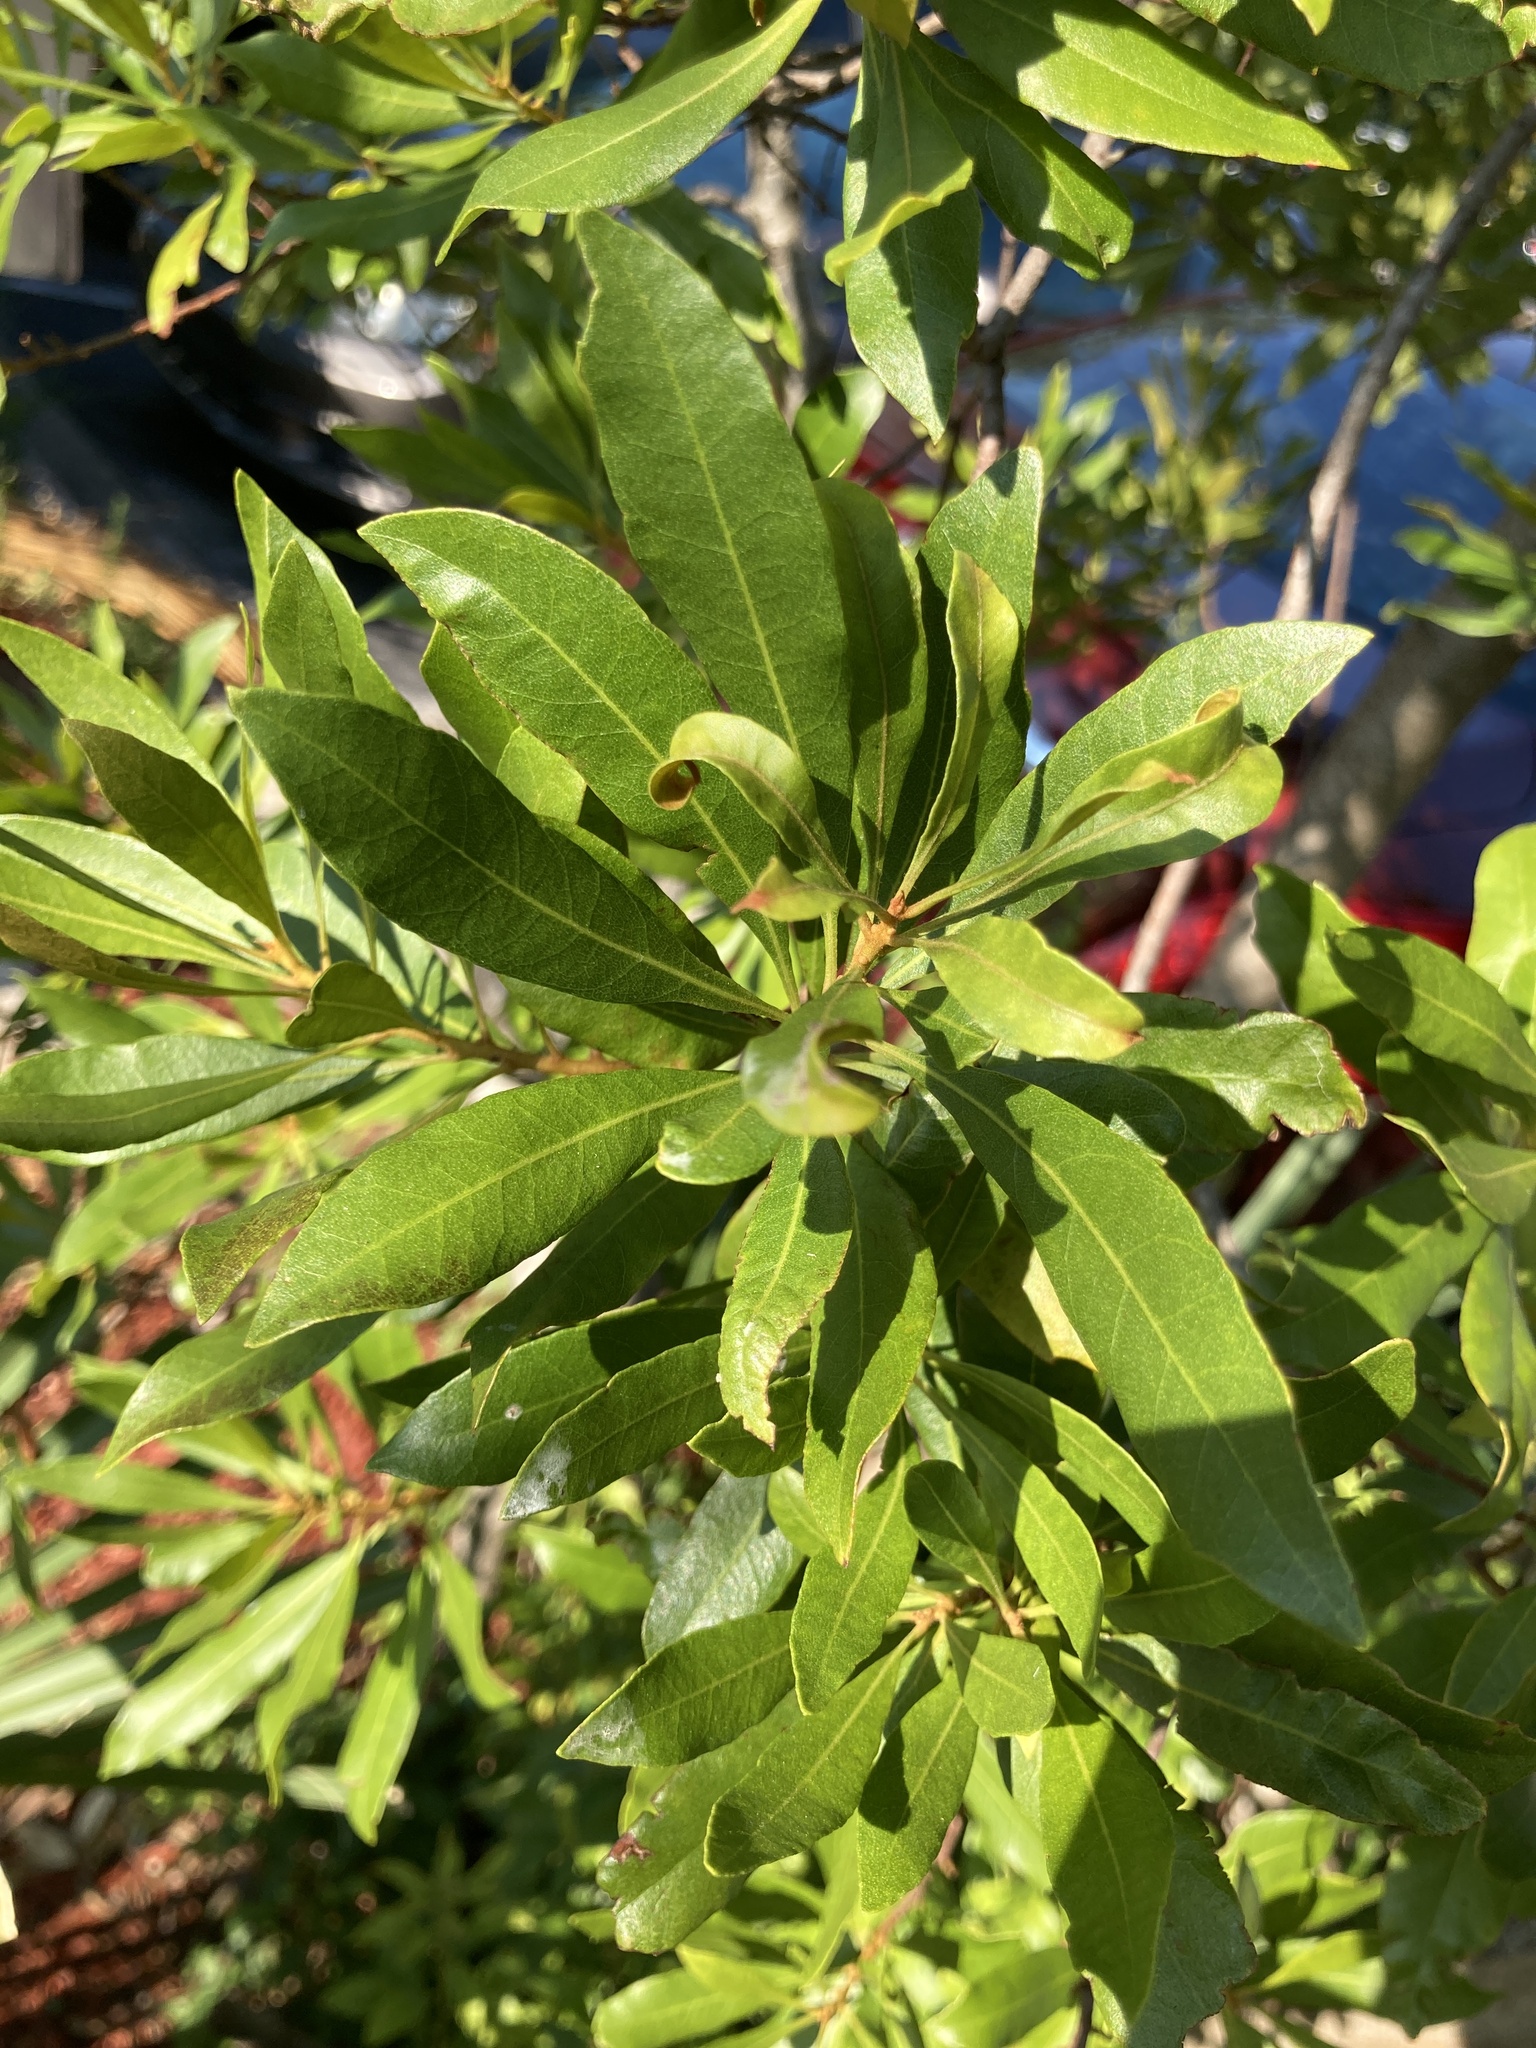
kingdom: Plantae
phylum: Tracheophyta
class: Magnoliopsida
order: Fagales
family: Myricaceae
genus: Morella
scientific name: Morella cerifera
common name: Wax myrtle
